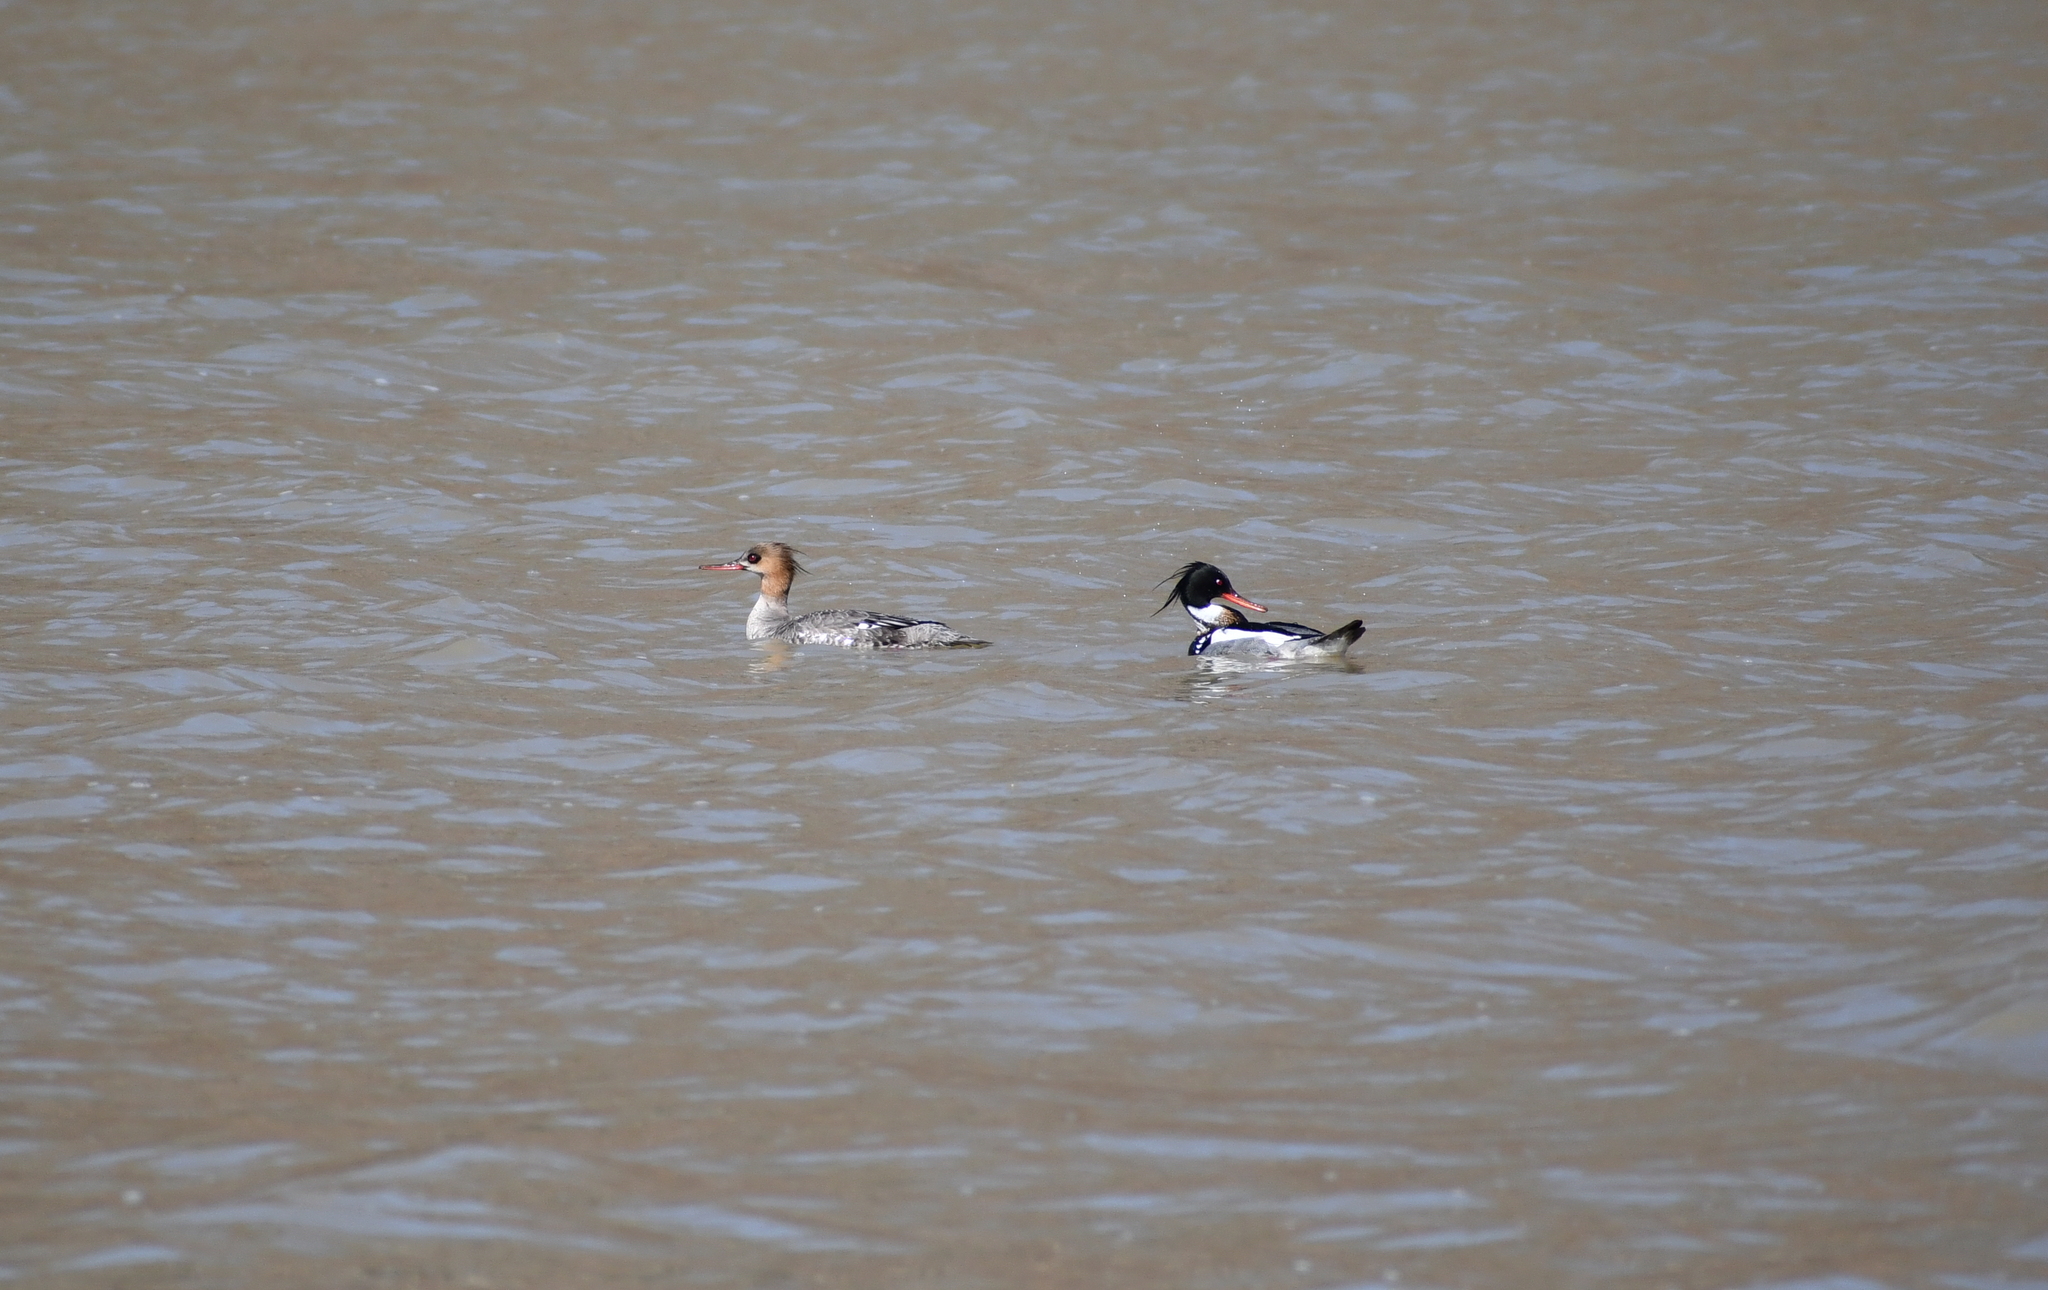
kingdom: Animalia
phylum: Chordata
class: Aves
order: Anseriformes
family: Anatidae
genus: Mergus
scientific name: Mergus serrator
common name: Red-breasted merganser
